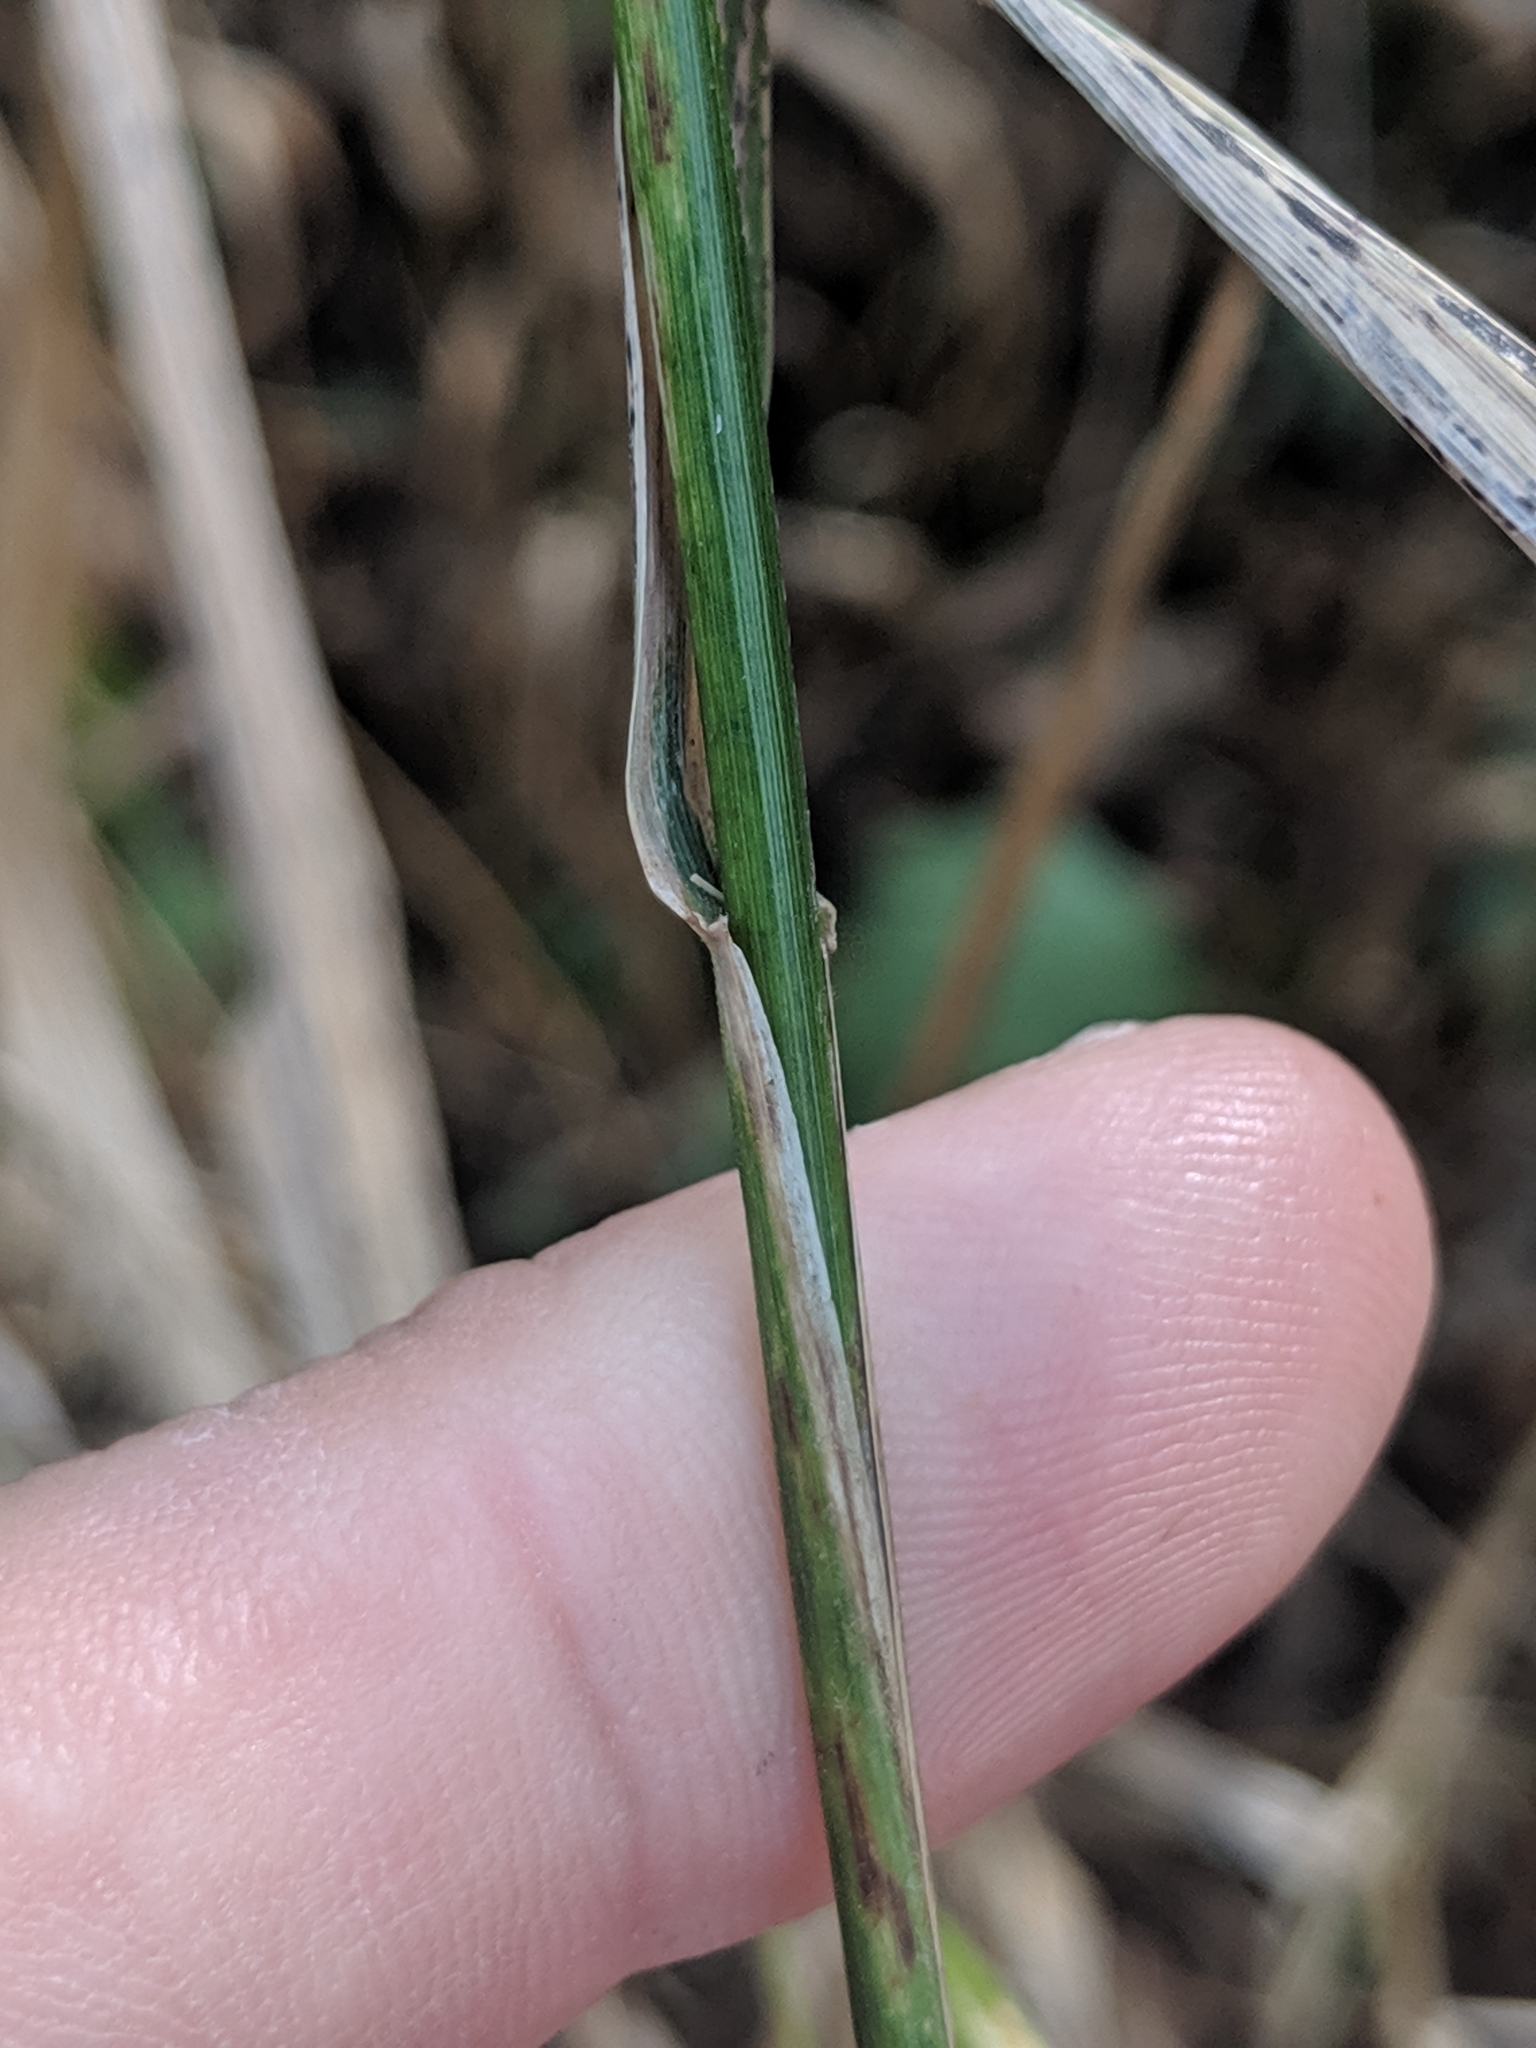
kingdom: Plantae
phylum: Tracheophyta
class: Liliopsida
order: Poales
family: Poaceae
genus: Elymus
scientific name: Elymus macgregorii
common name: Early wild rye
